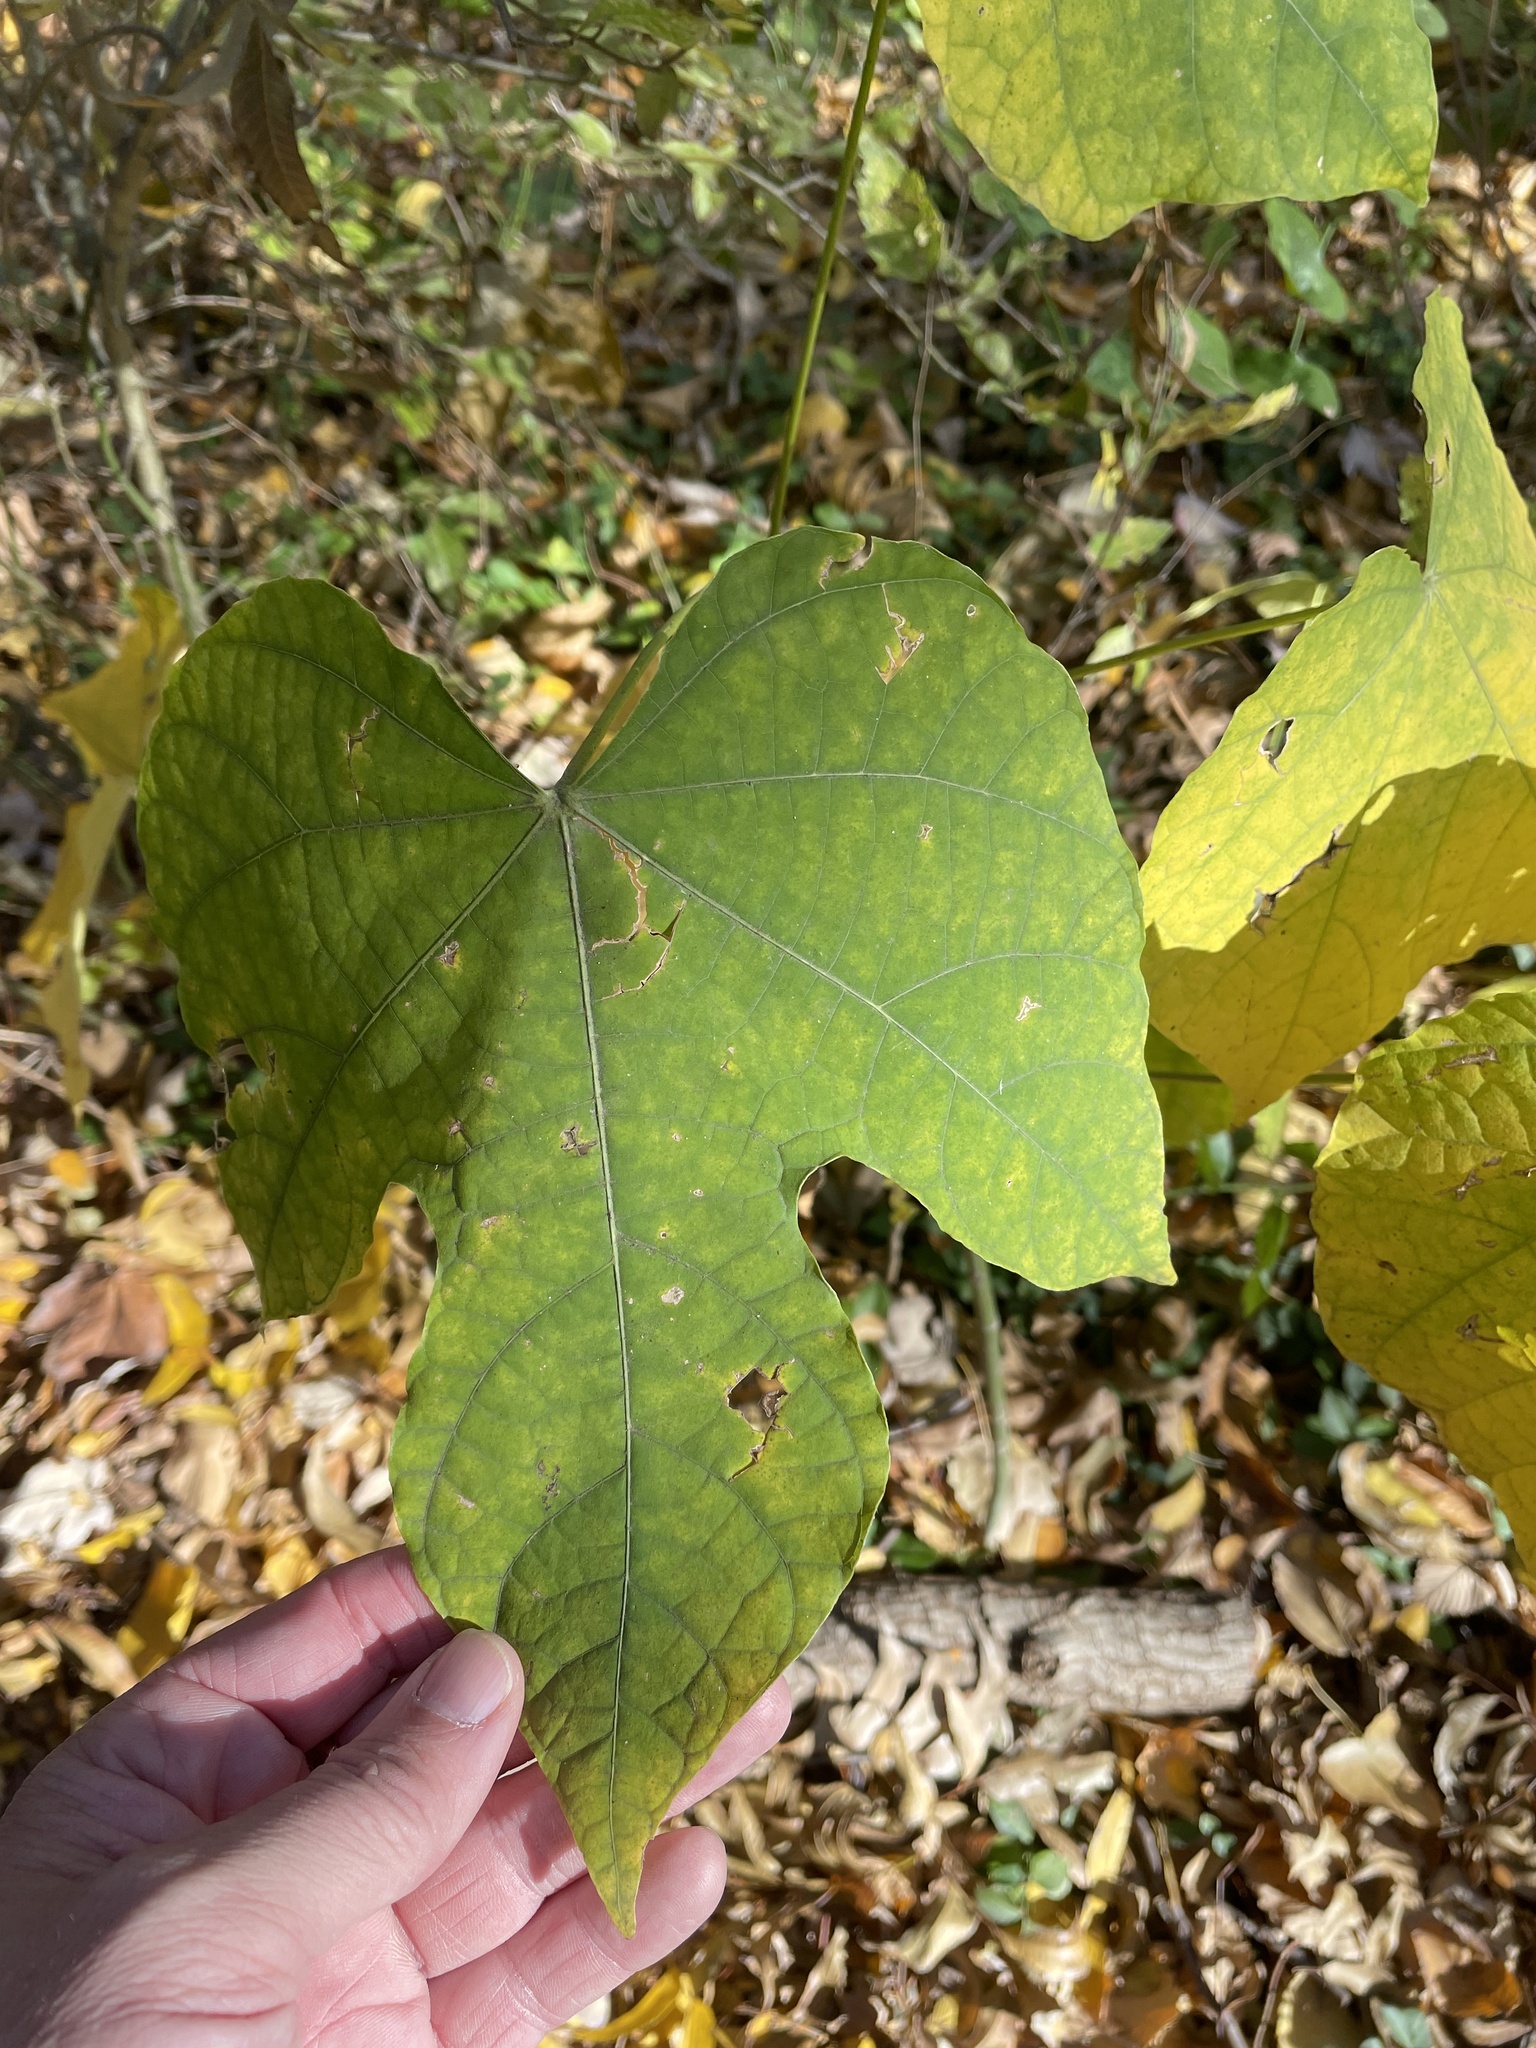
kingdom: Plantae
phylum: Tracheophyta
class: Magnoliopsida
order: Malvales
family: Malvaceae
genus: Firmiana
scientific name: Firmiana simplex
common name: Chinese parasoltree
